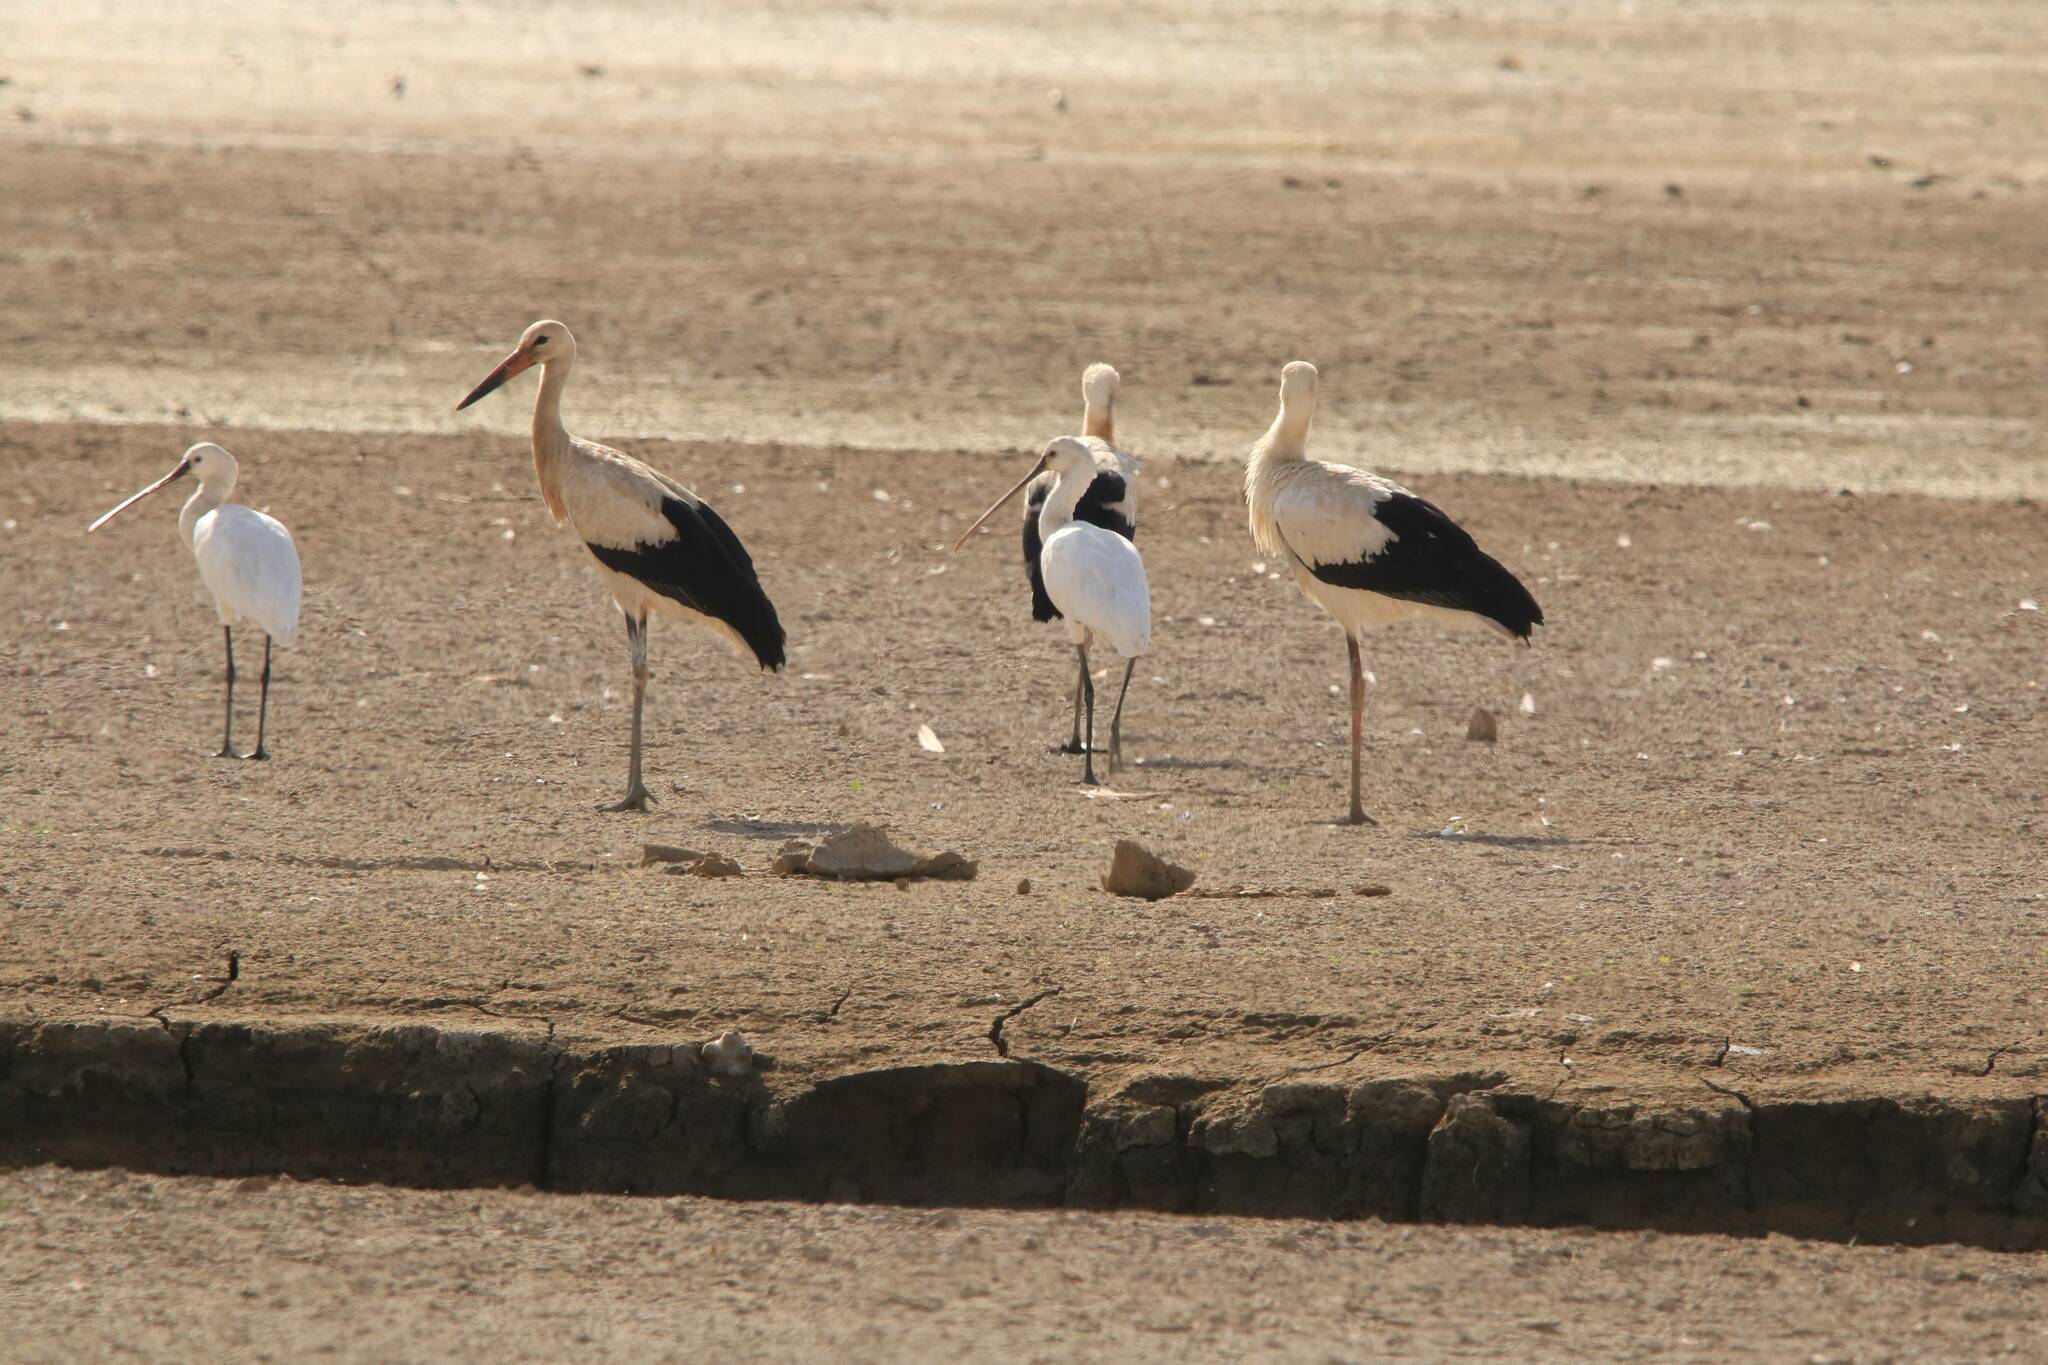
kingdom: Animalia
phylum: Chordata
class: Aves
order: Pelecaniformes
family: Threskiornithidae
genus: Platalea
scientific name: Platalea leucorodia
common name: Eurasian spoonbill
